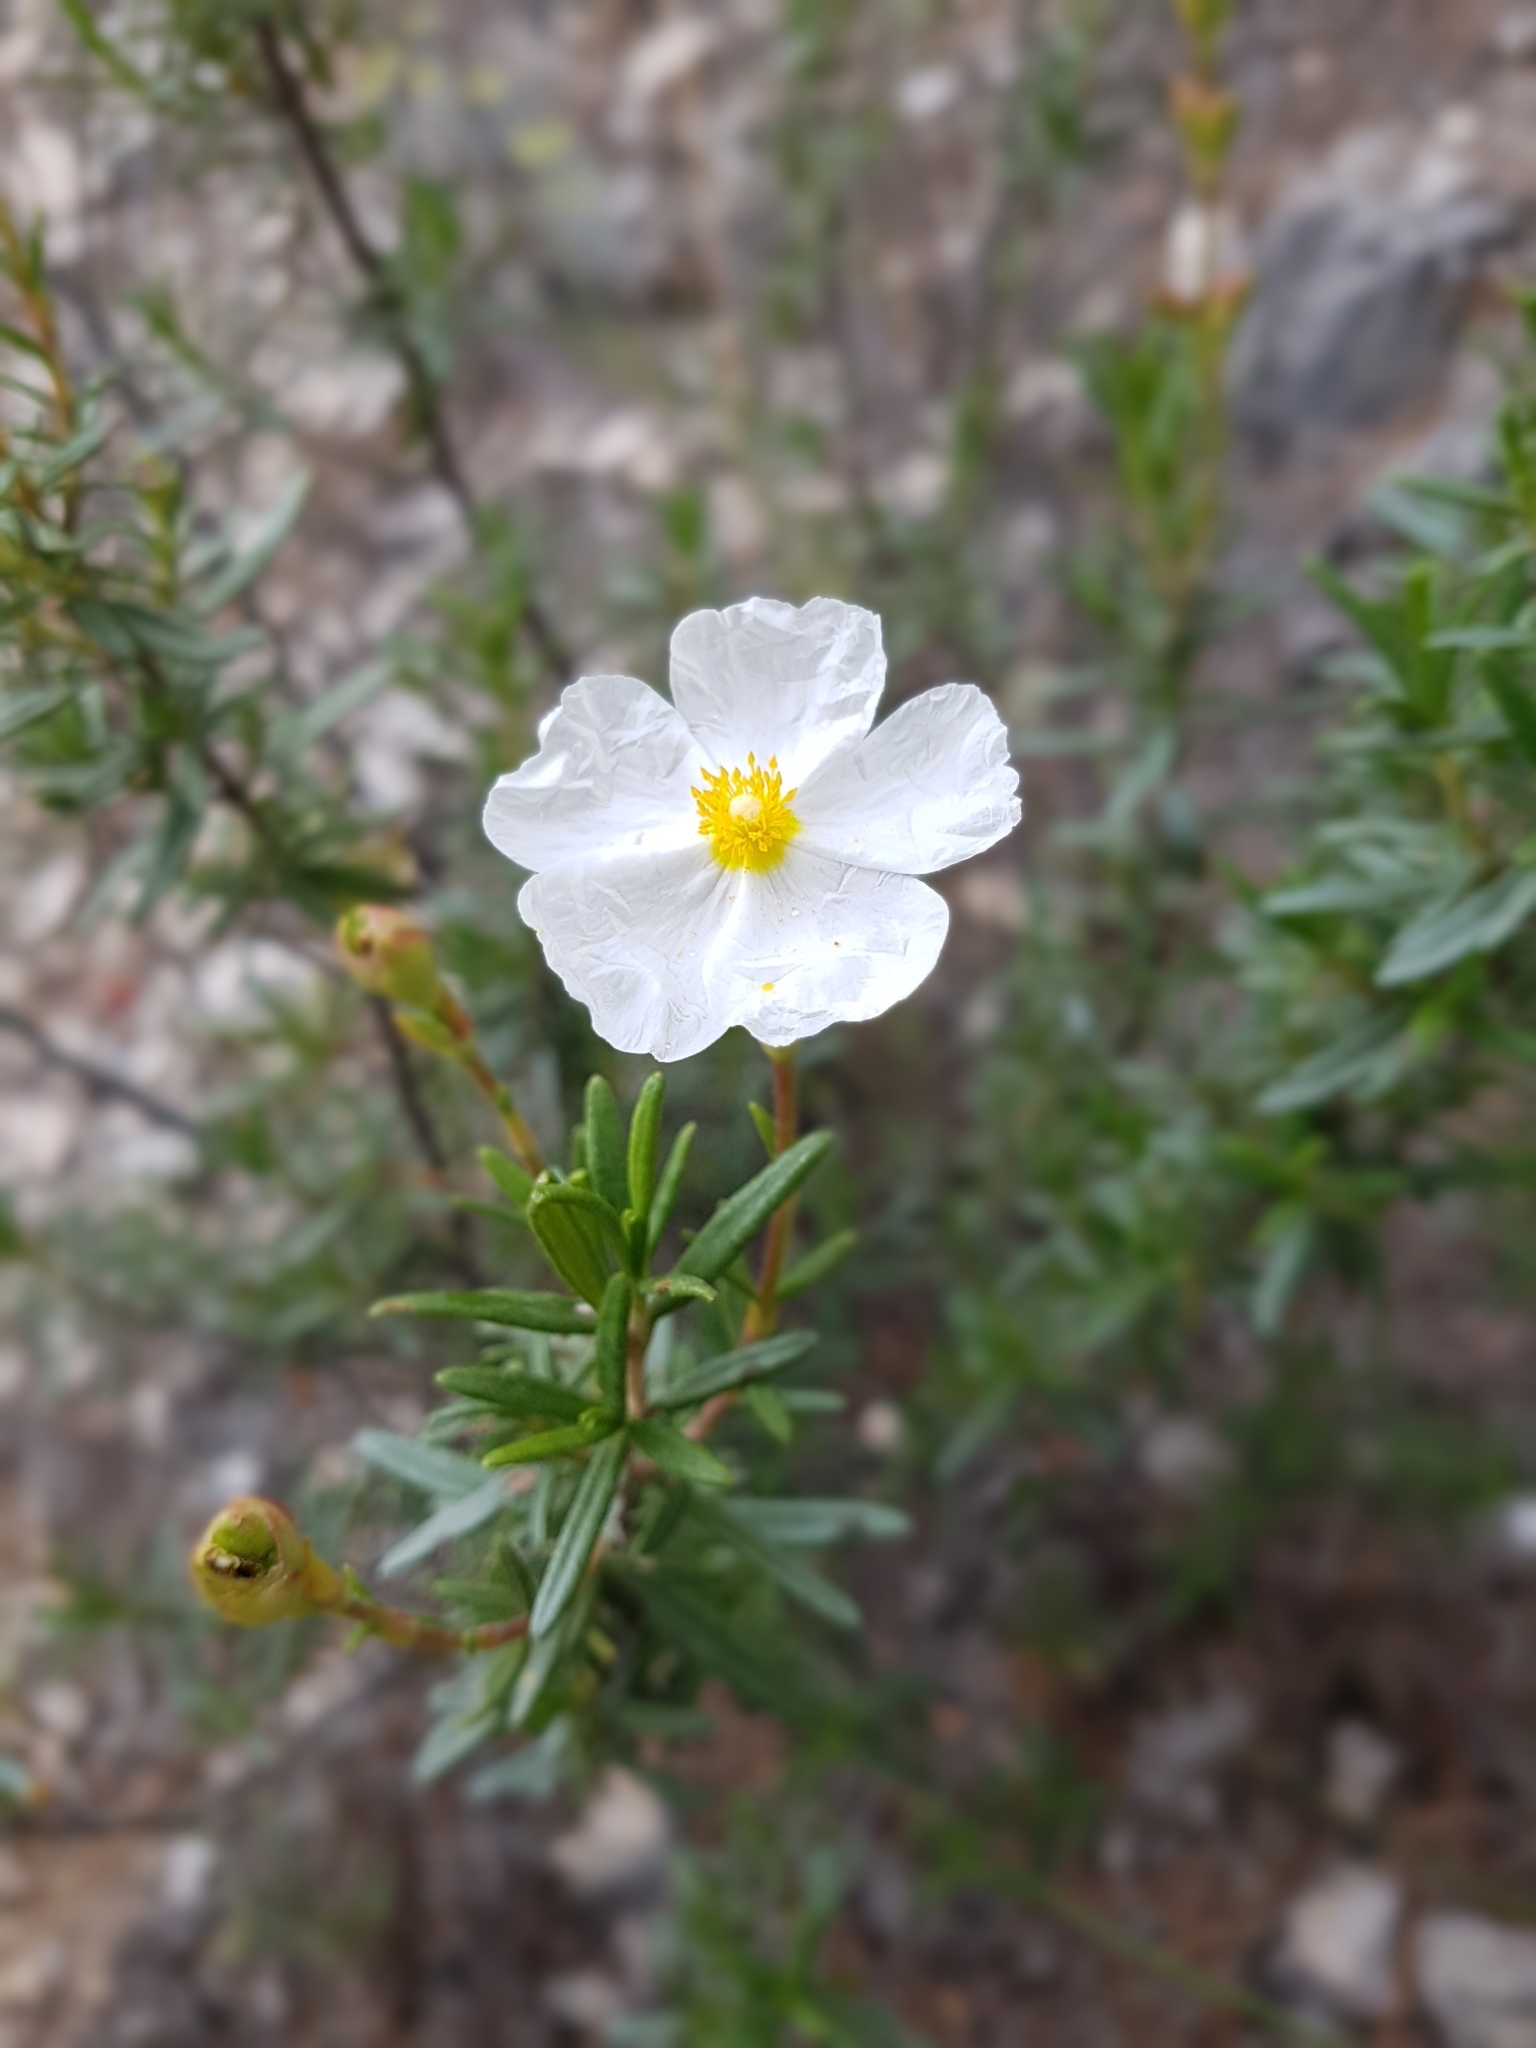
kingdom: Plantae
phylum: Tracheophyta
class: Magnoliopsida
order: Malvales
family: Cistaceae
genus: Cistus
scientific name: Cistus clusii
